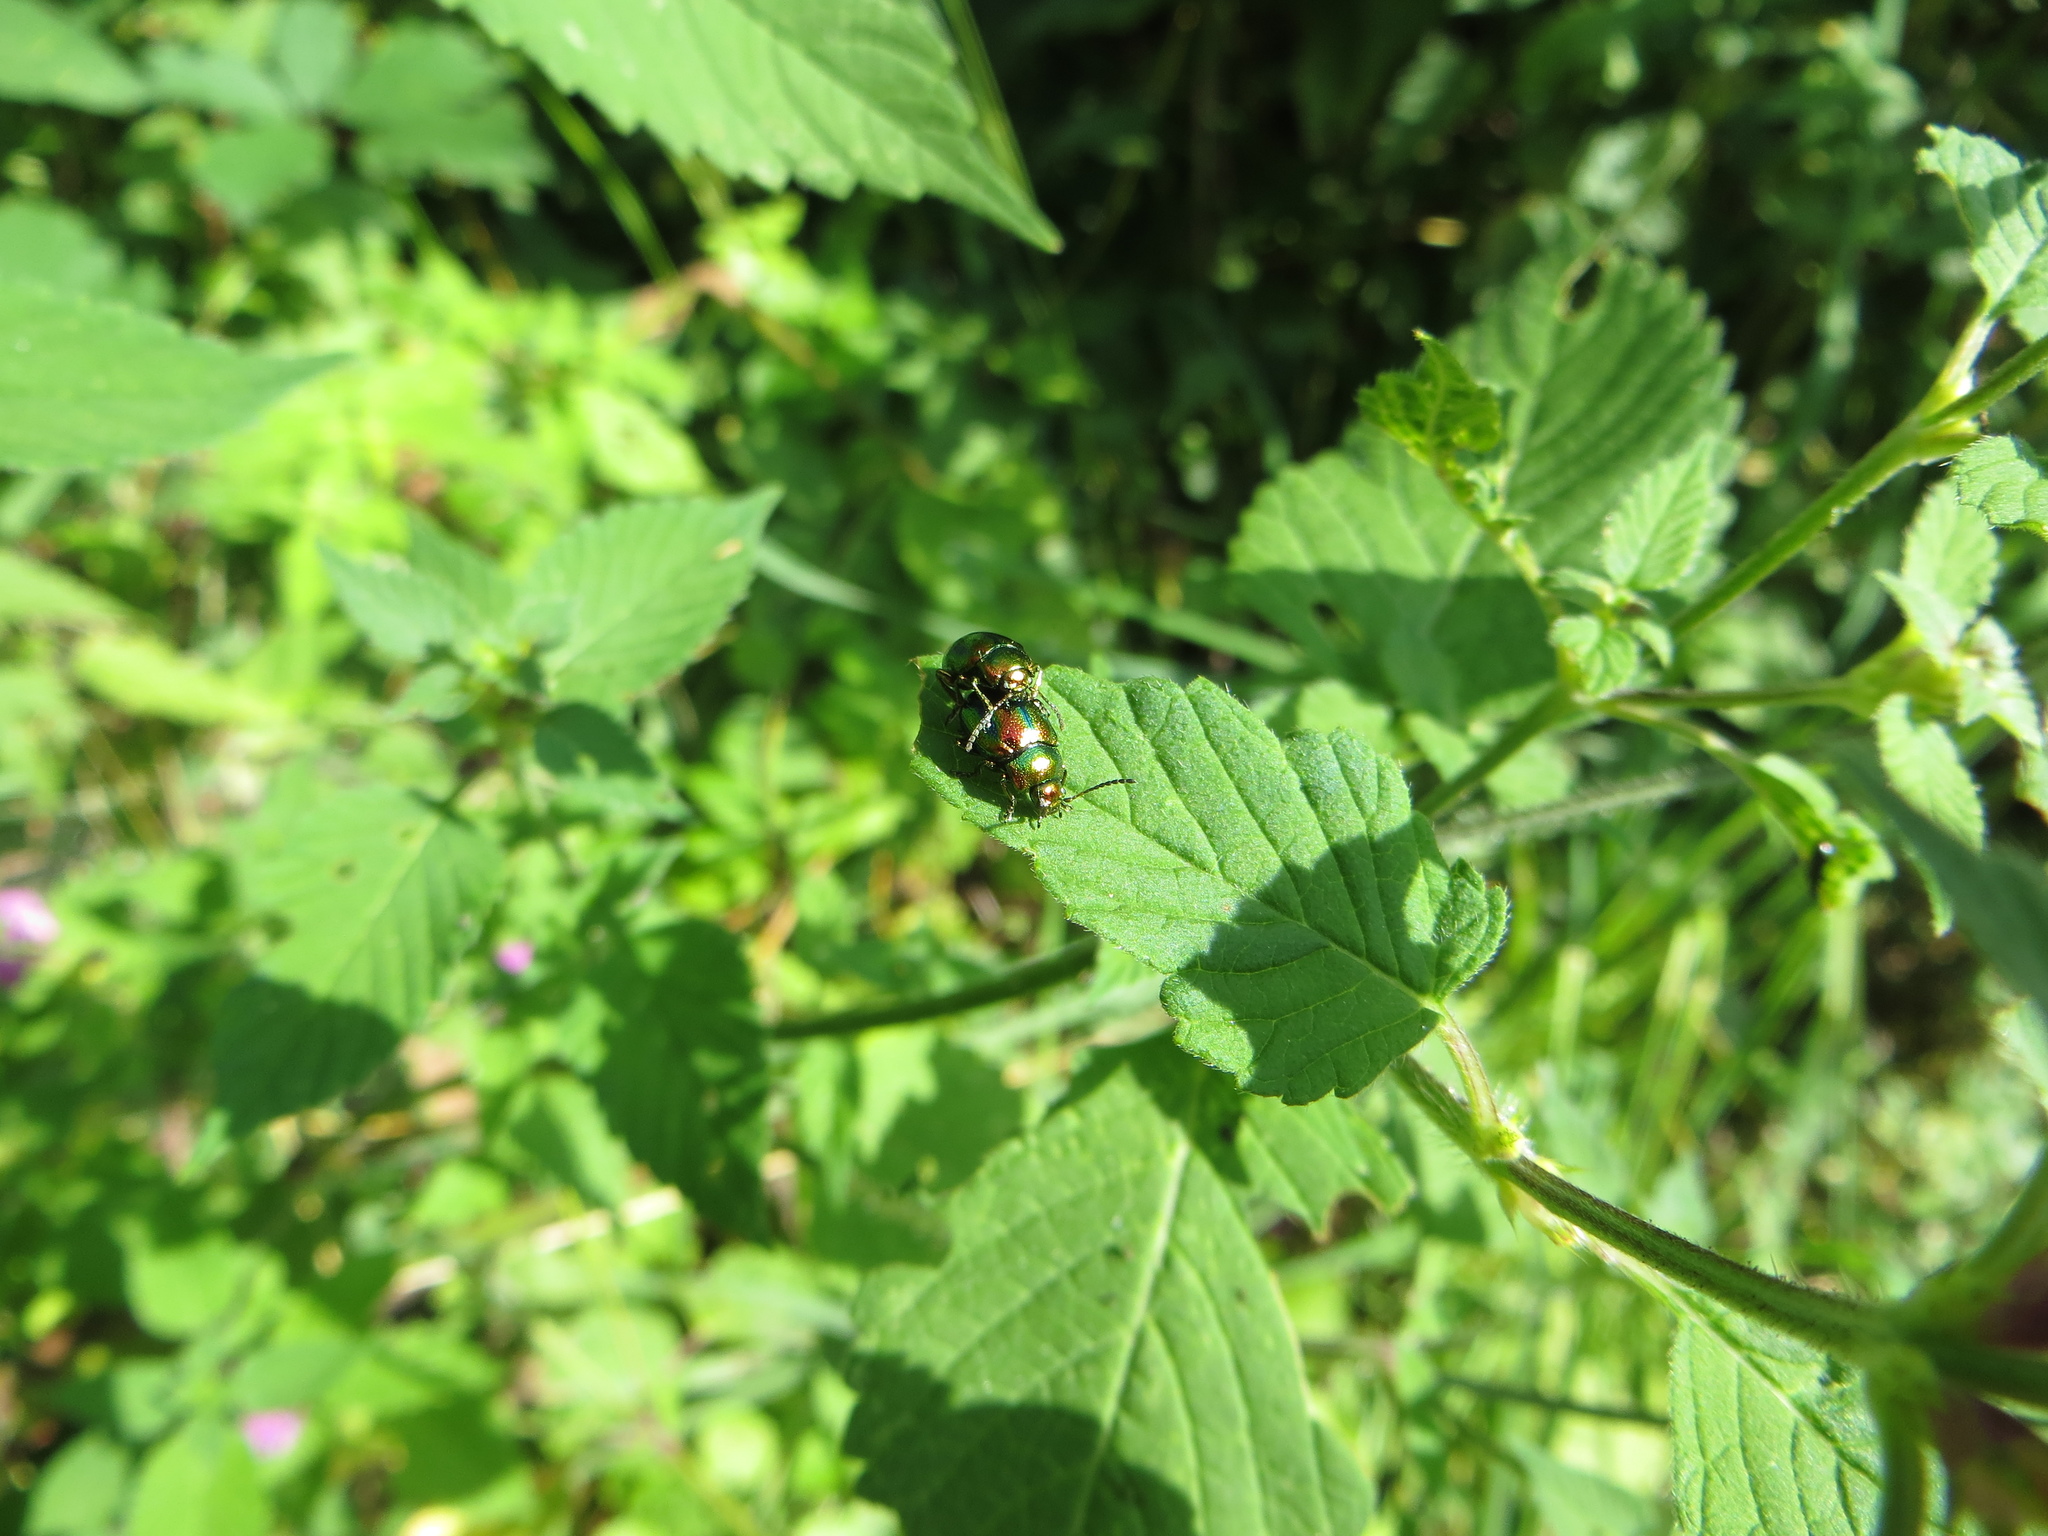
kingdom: Animalia
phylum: Arthropoda
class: Insecta
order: Coleoptera
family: Chrysomelidae
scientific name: Chrysomelidae
